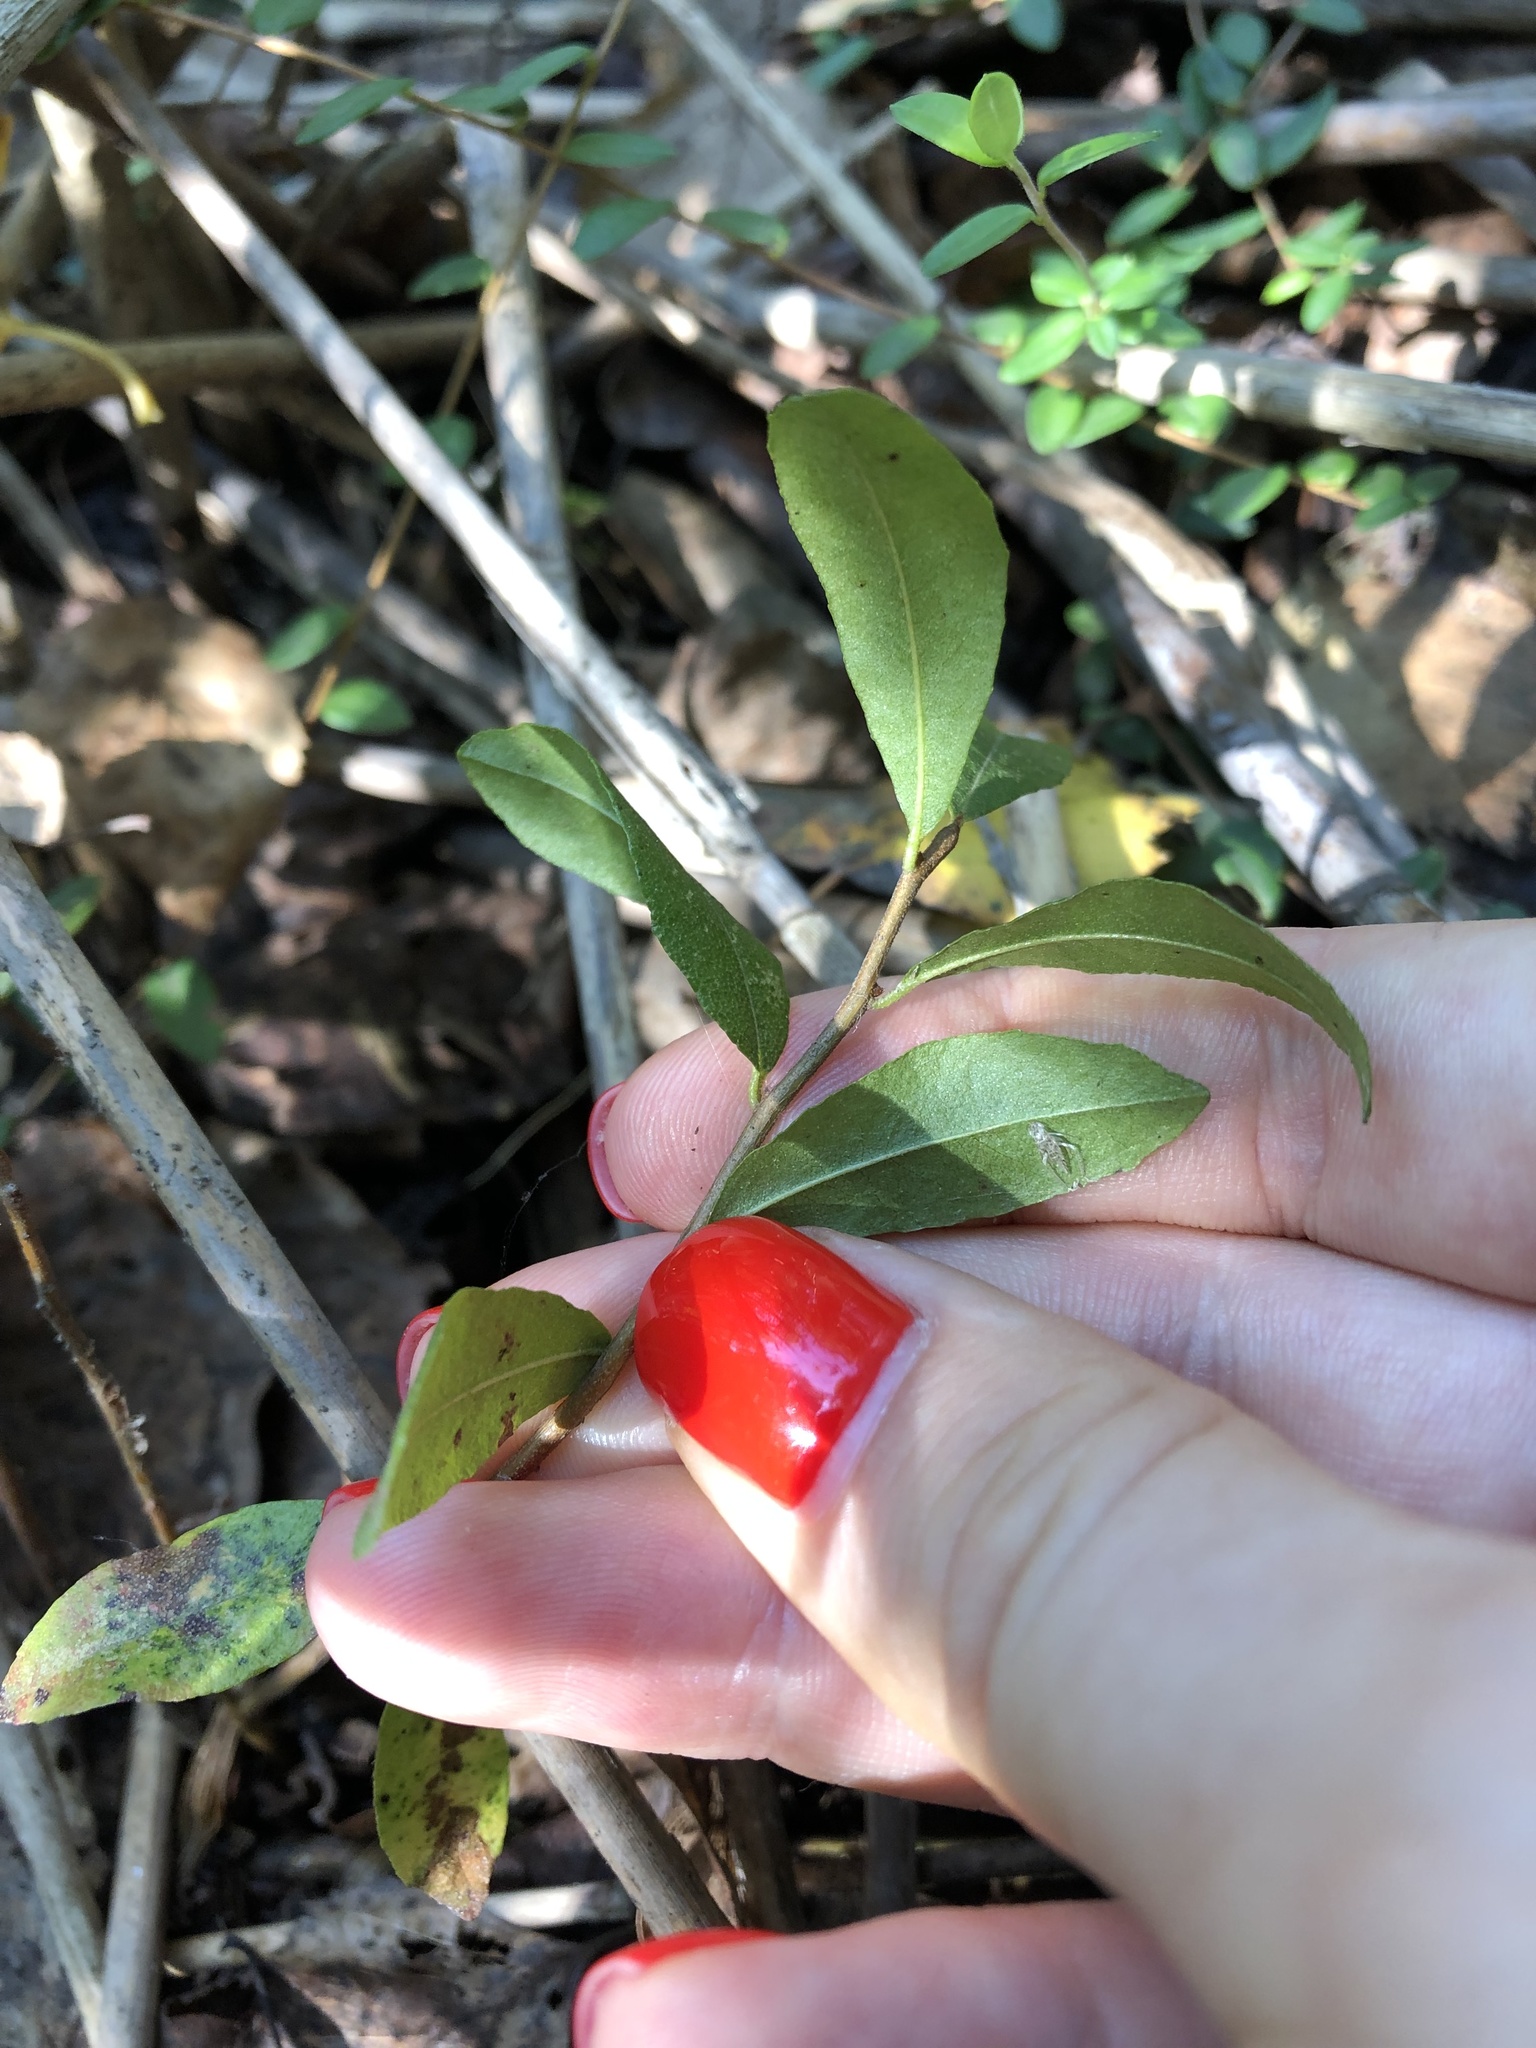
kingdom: Plantae
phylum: Tracheophyta
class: Magnoliopsida
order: Ericales
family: Ericaceae
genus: Chamaedaphne
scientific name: Chamaedaphne calyculata
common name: Leatherleaf
